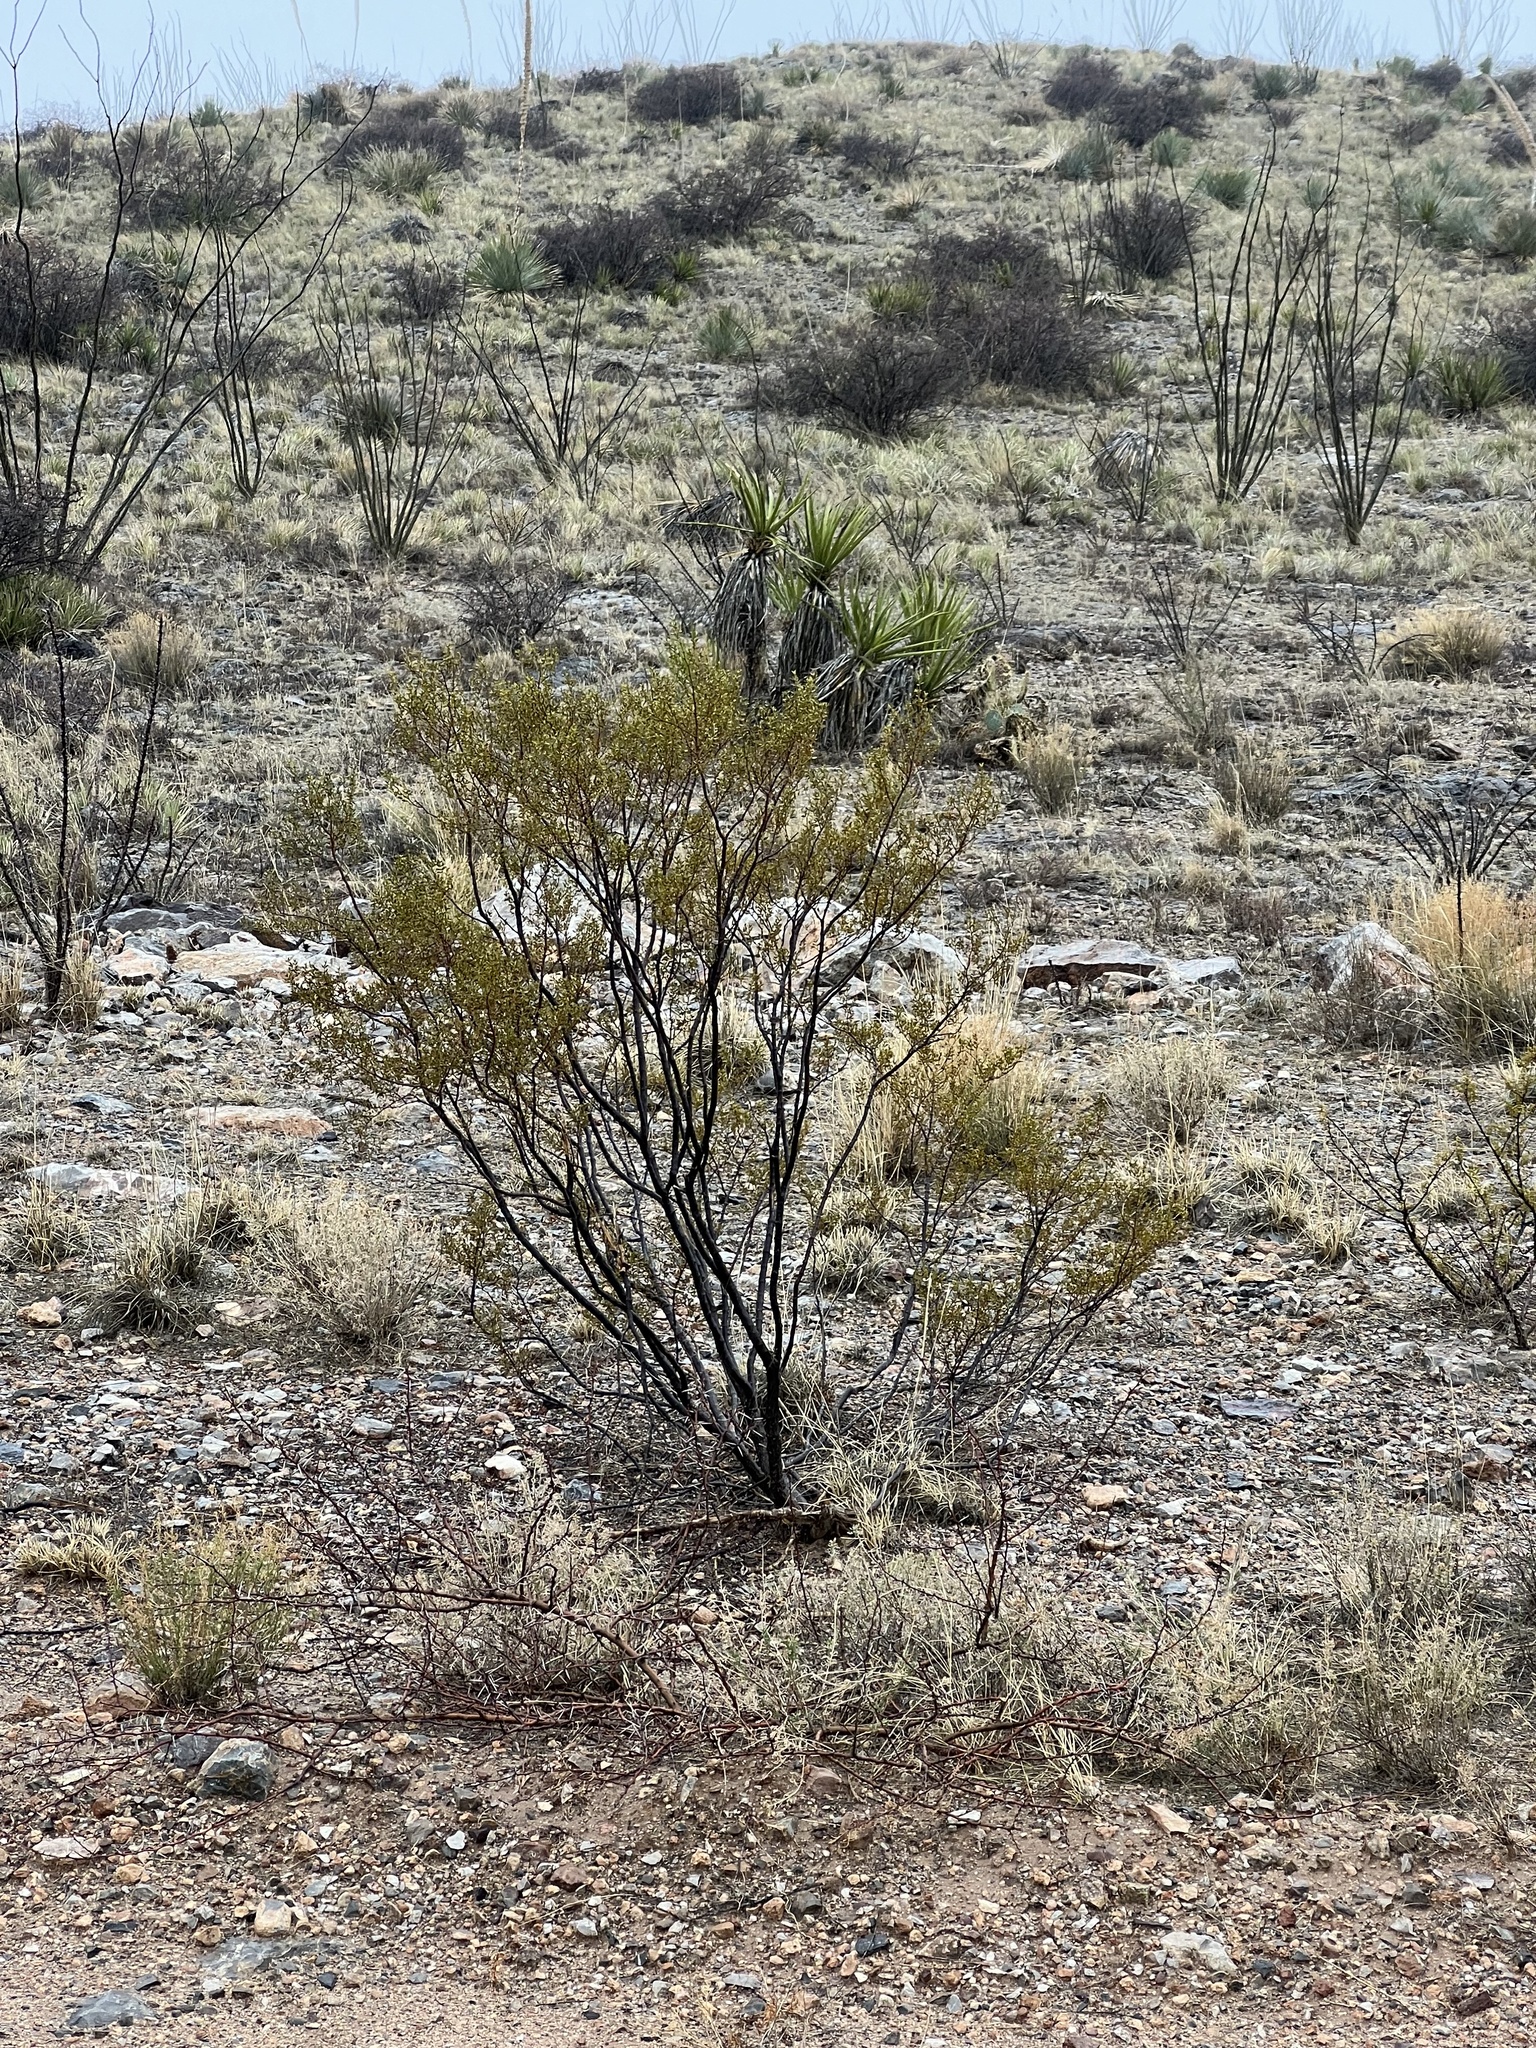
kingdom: Plantae
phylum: Tracheophyta
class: Magnoliopsida
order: Zygophyllales
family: Zygophyllaceae
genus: Larrea
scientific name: Larrea tridentata
